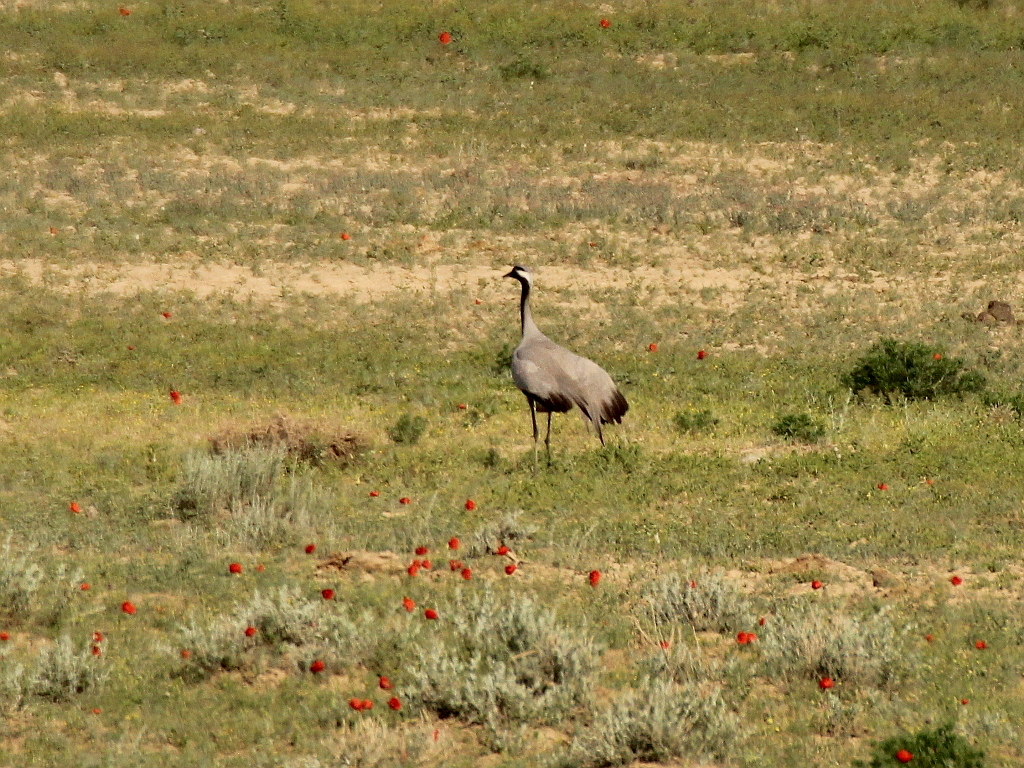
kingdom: Animalia
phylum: Chordata
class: Aves
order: Gruiformes
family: Gruidae
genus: Anthropoides
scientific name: Anthropoides virgo
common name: Demoiselle crane
